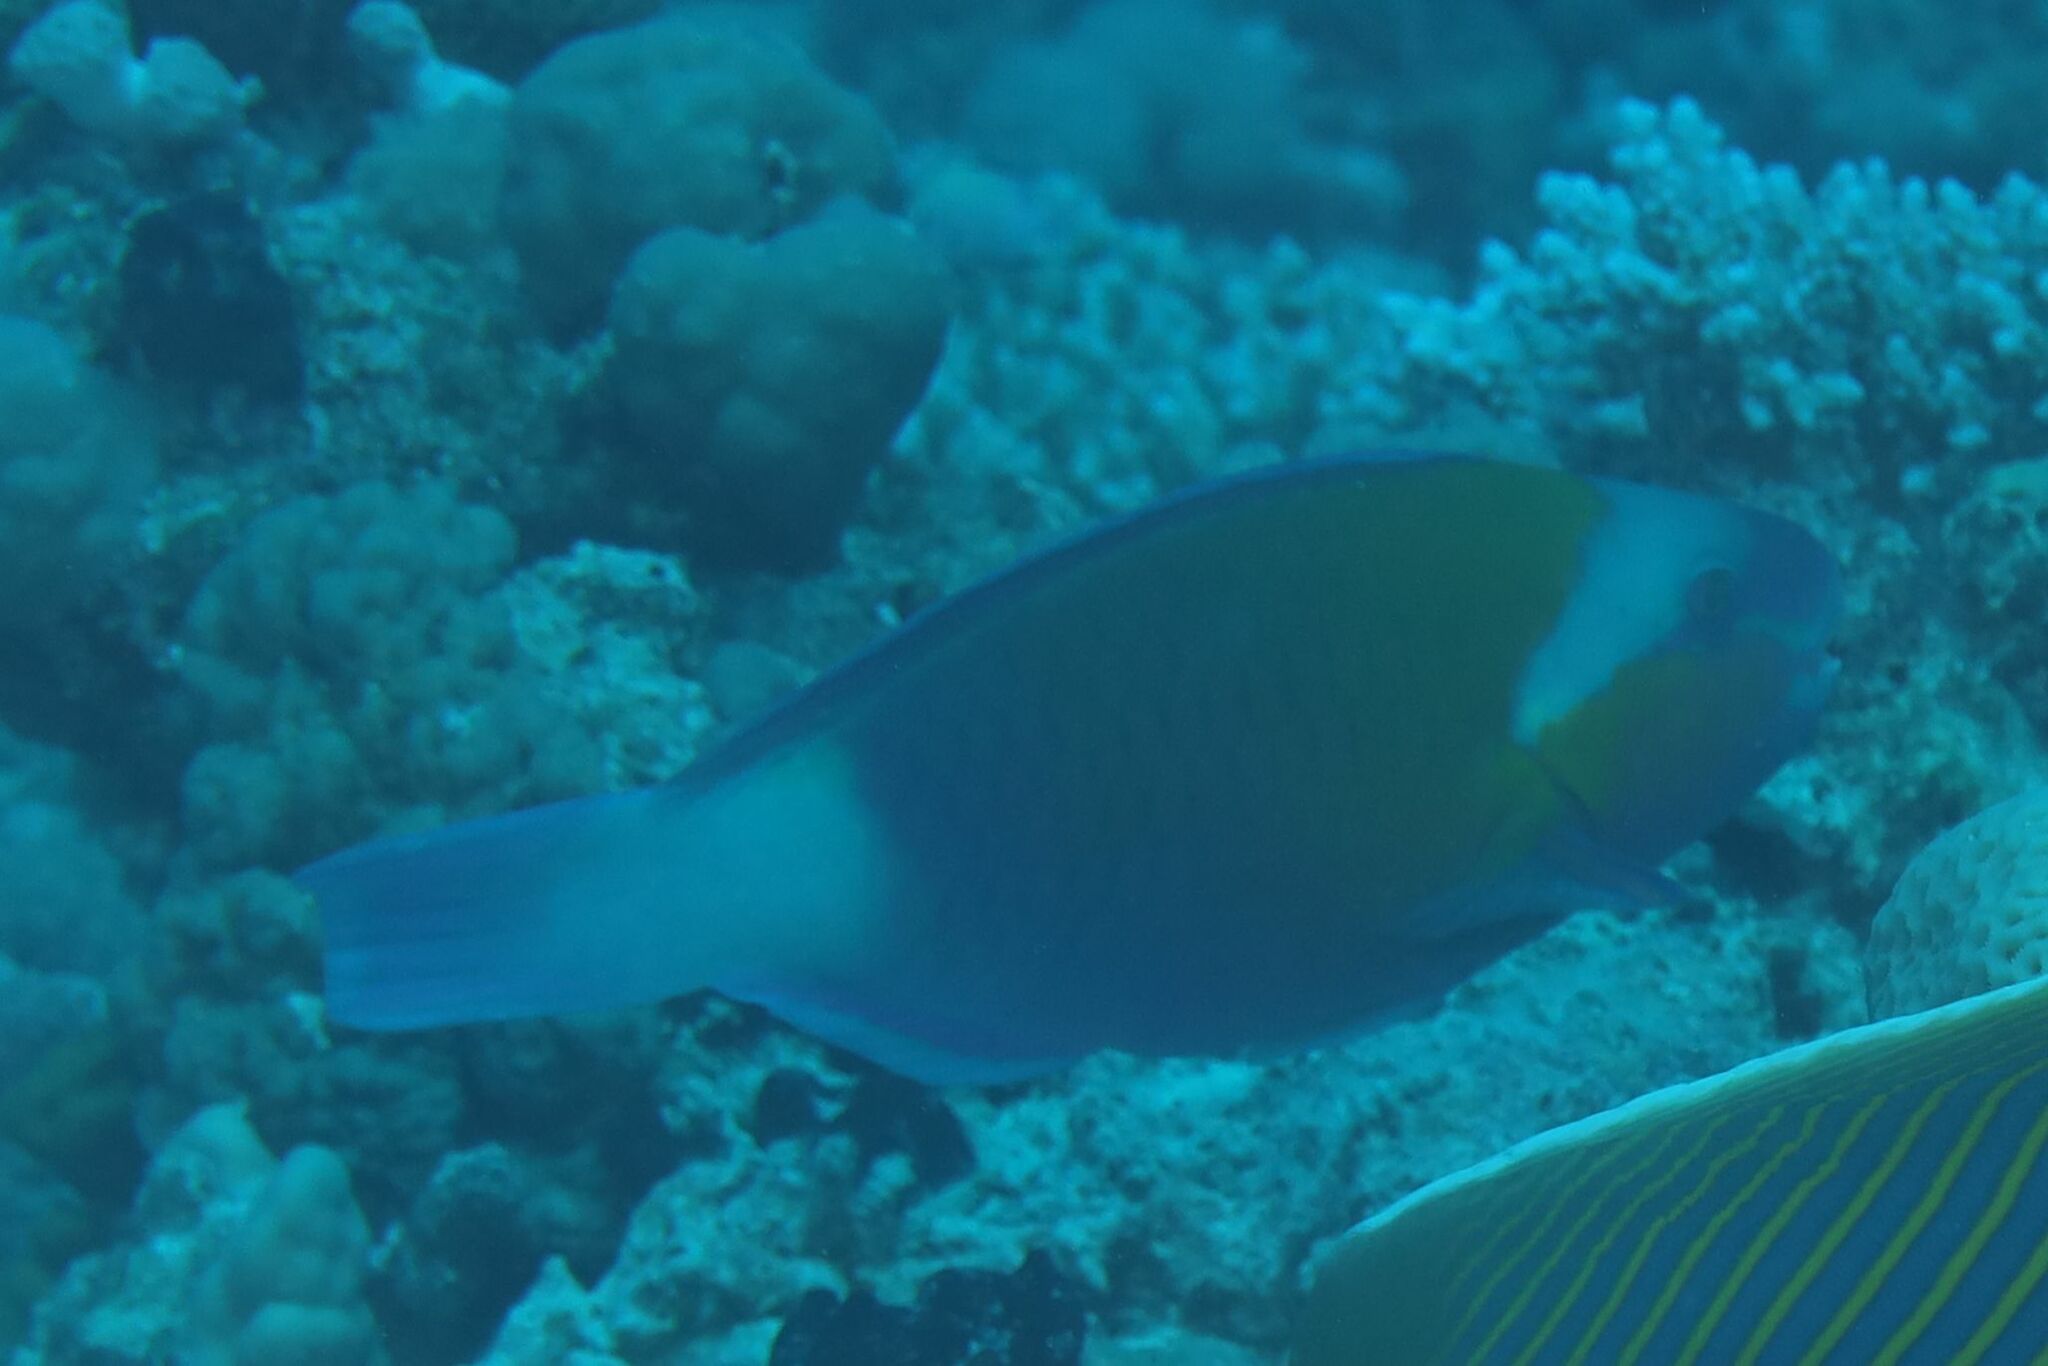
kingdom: Animalia
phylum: Chordata
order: Perciformes
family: Scaridae
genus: Chlorurus
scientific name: Chlorurus sordidus
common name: Bullethead parrotfish
